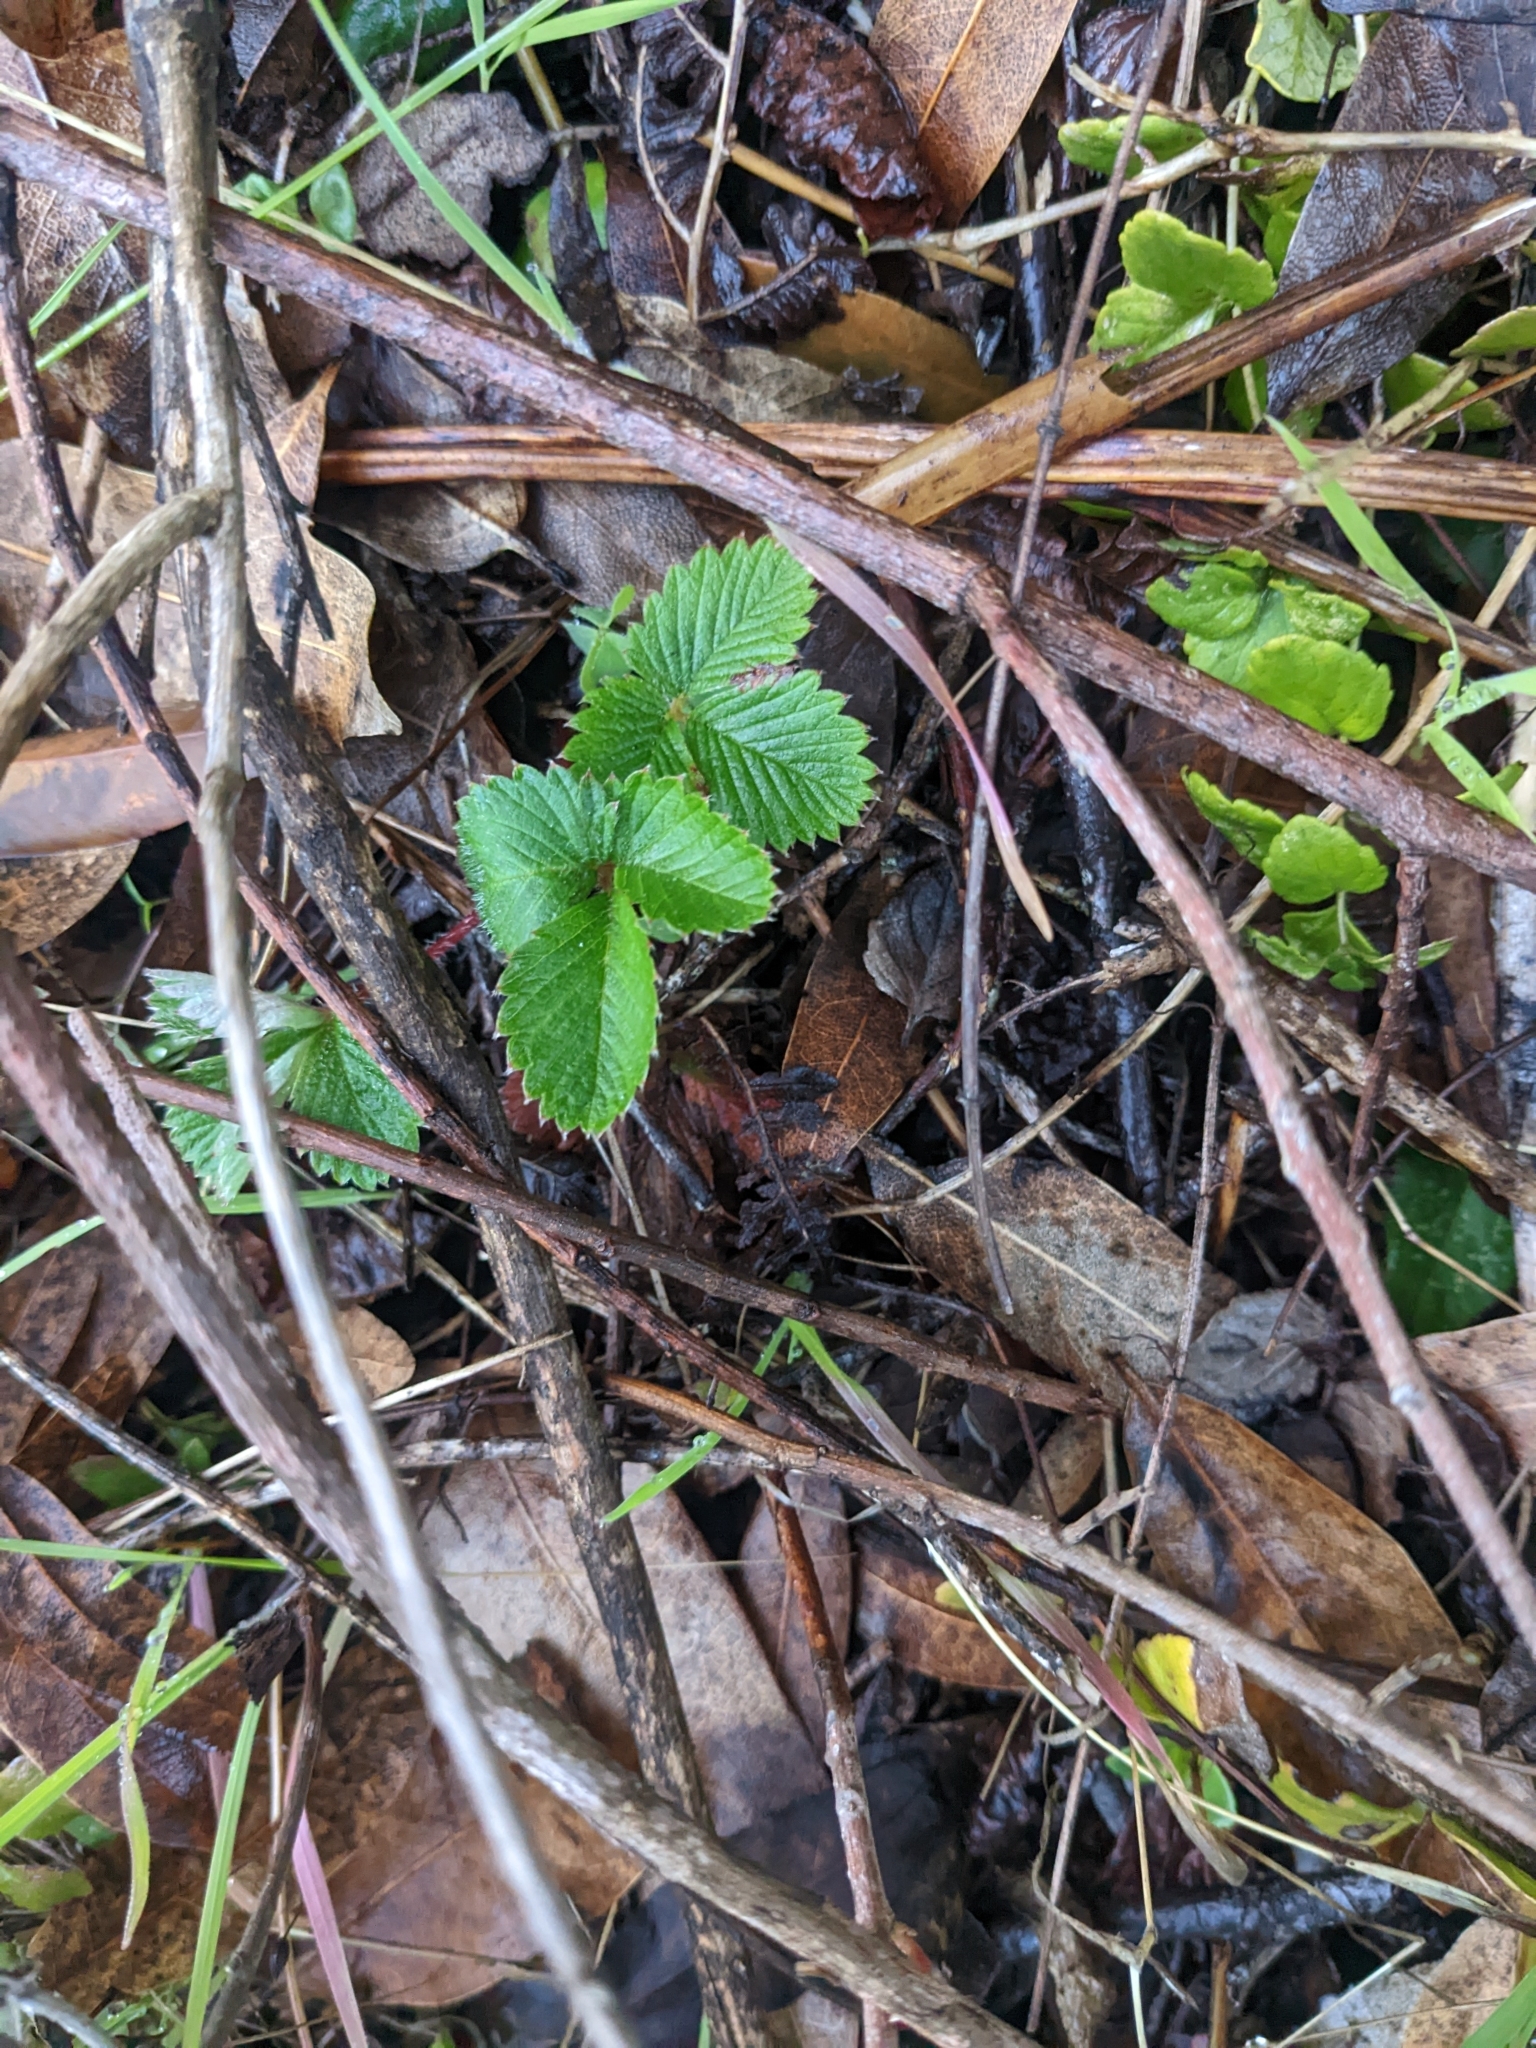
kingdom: Plantae
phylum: Tracheophyta
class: Magnoliopsida
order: Rosales
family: Rosaceae
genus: Fragaria
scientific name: Fragaria vesca
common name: Wild strawberry
